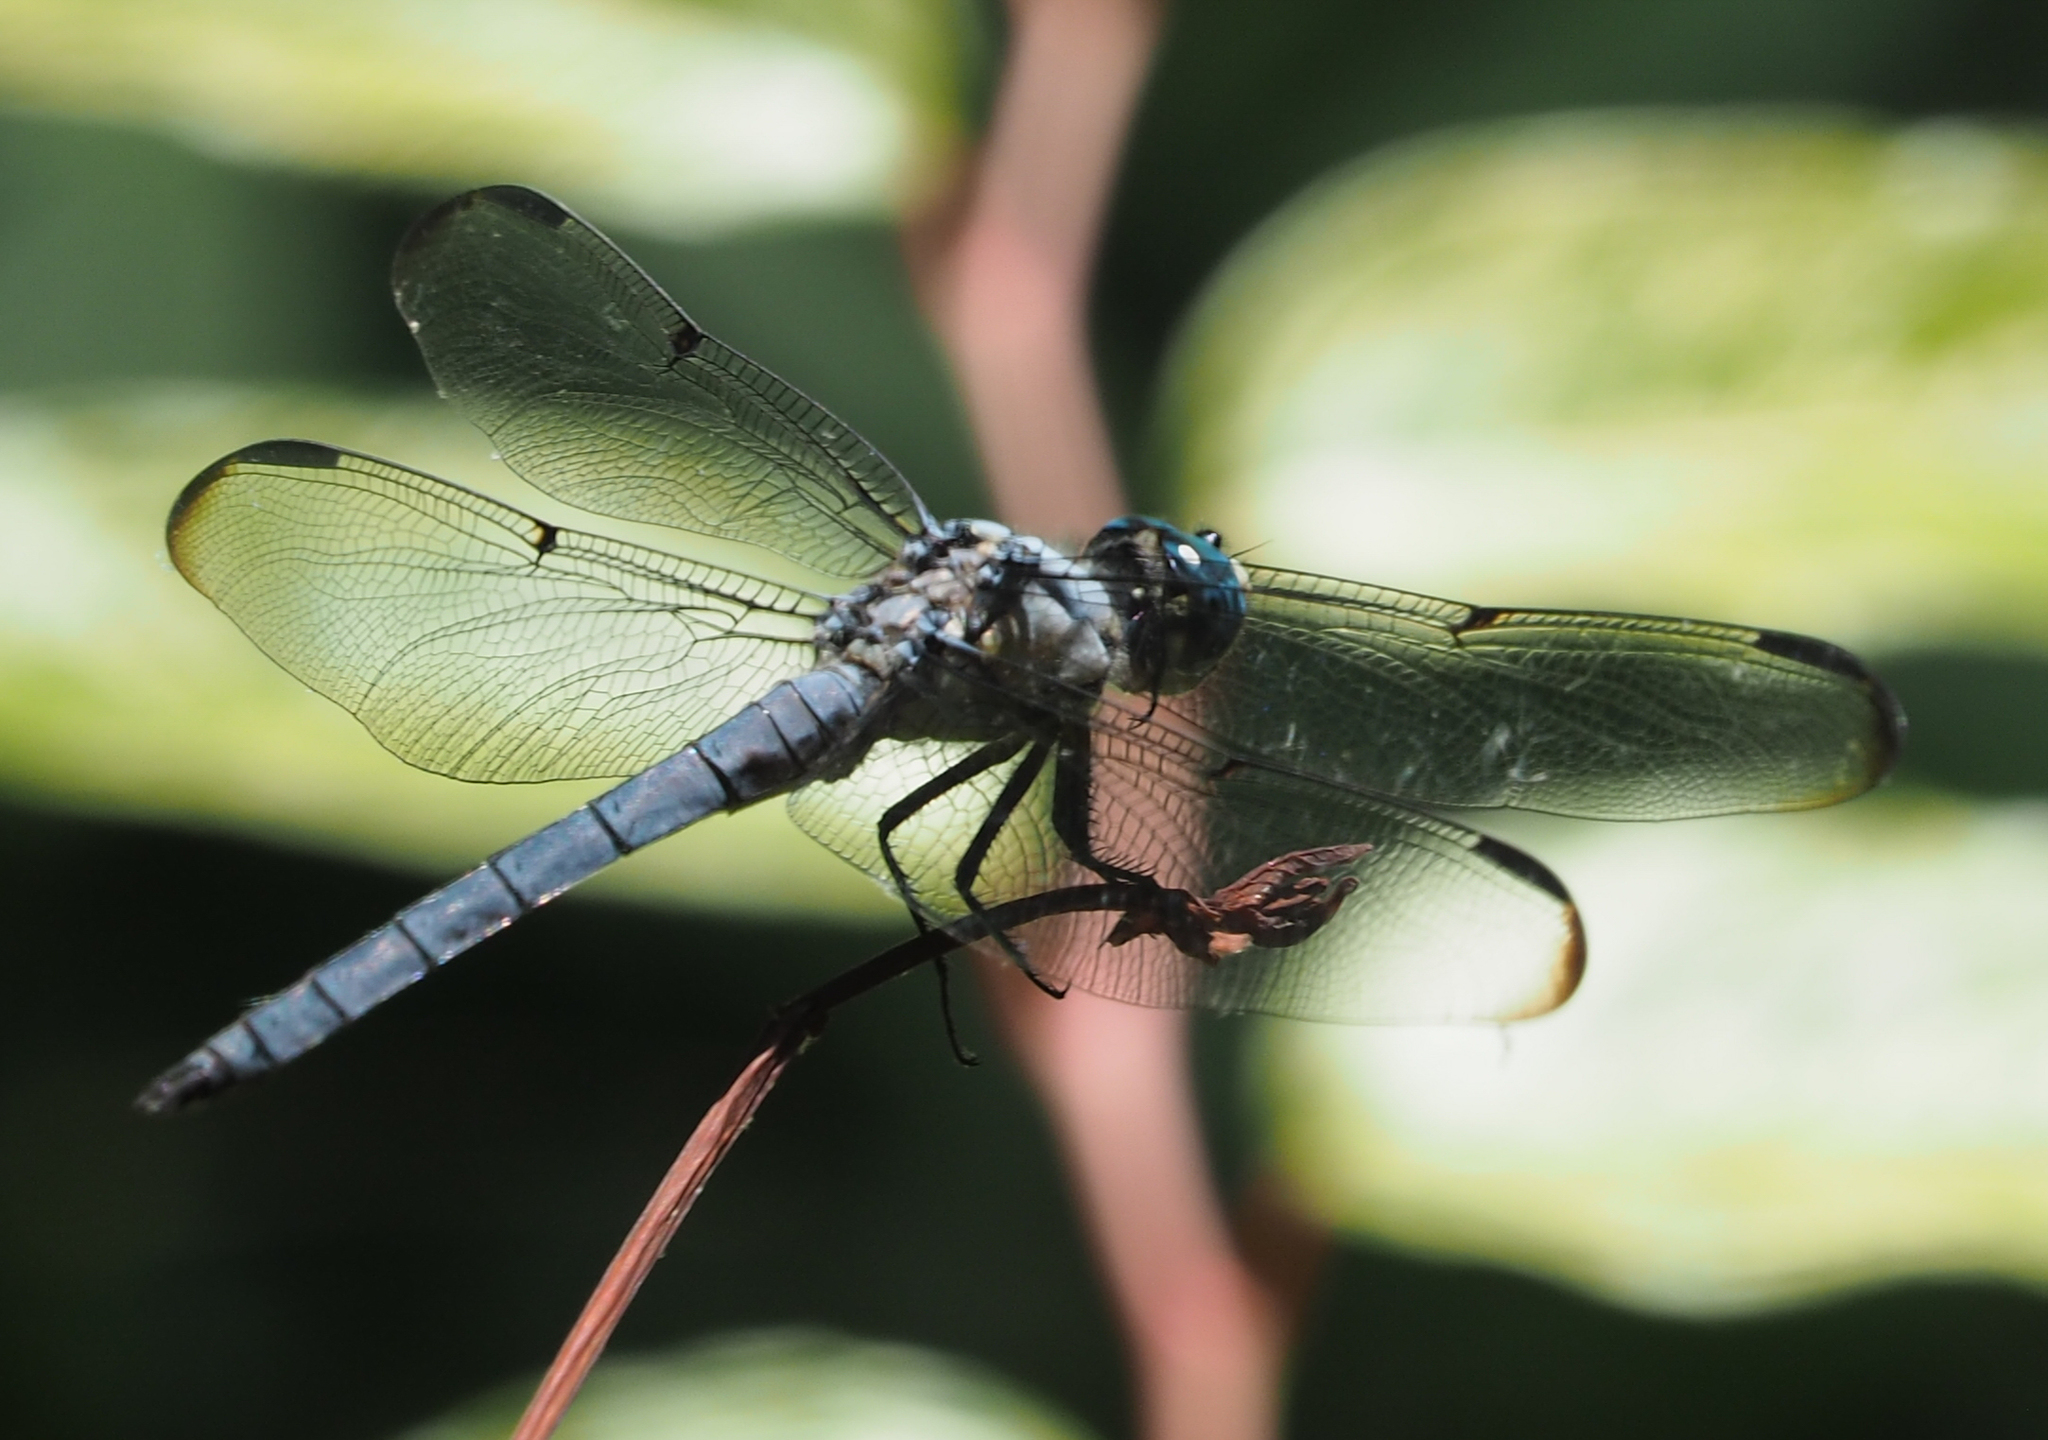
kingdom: Animalia
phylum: Arthropoda
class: Insecta
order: Odonata
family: Libellulidae
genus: Libellula
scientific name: Libellula vibrans
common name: Great blue skimmer
